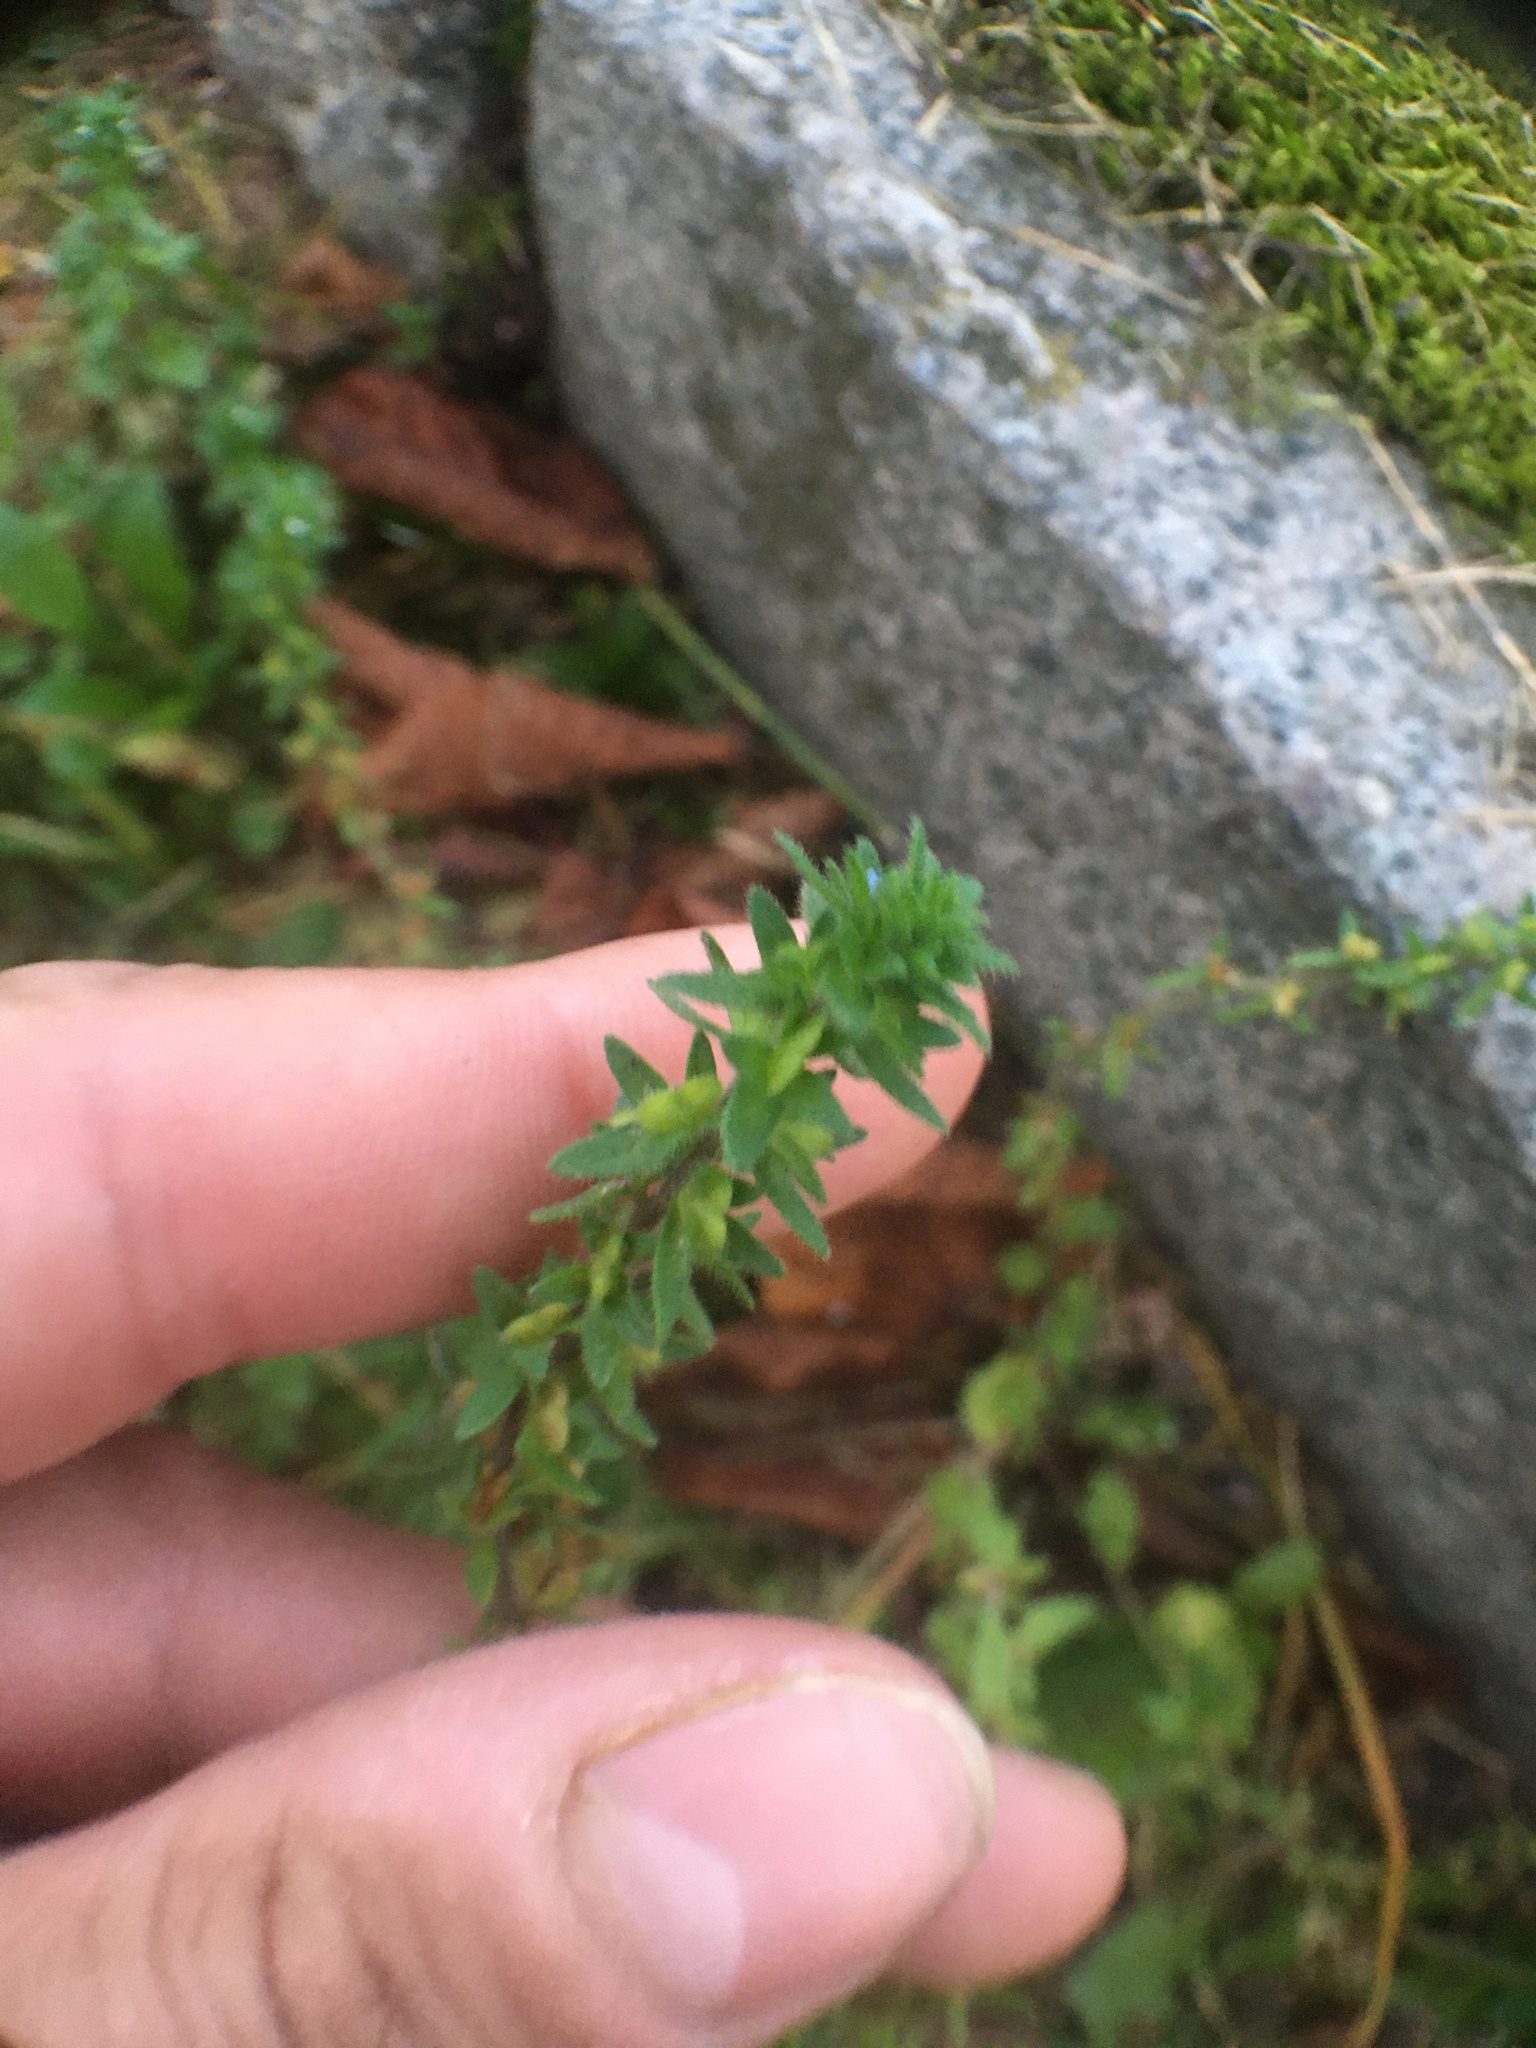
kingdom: Plantae
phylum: Tracheophyta
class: Magnoliopsida
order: Lamiales
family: Plantaginaceae
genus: Veronica
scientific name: Veronica arvensis
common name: Corn speedwell
